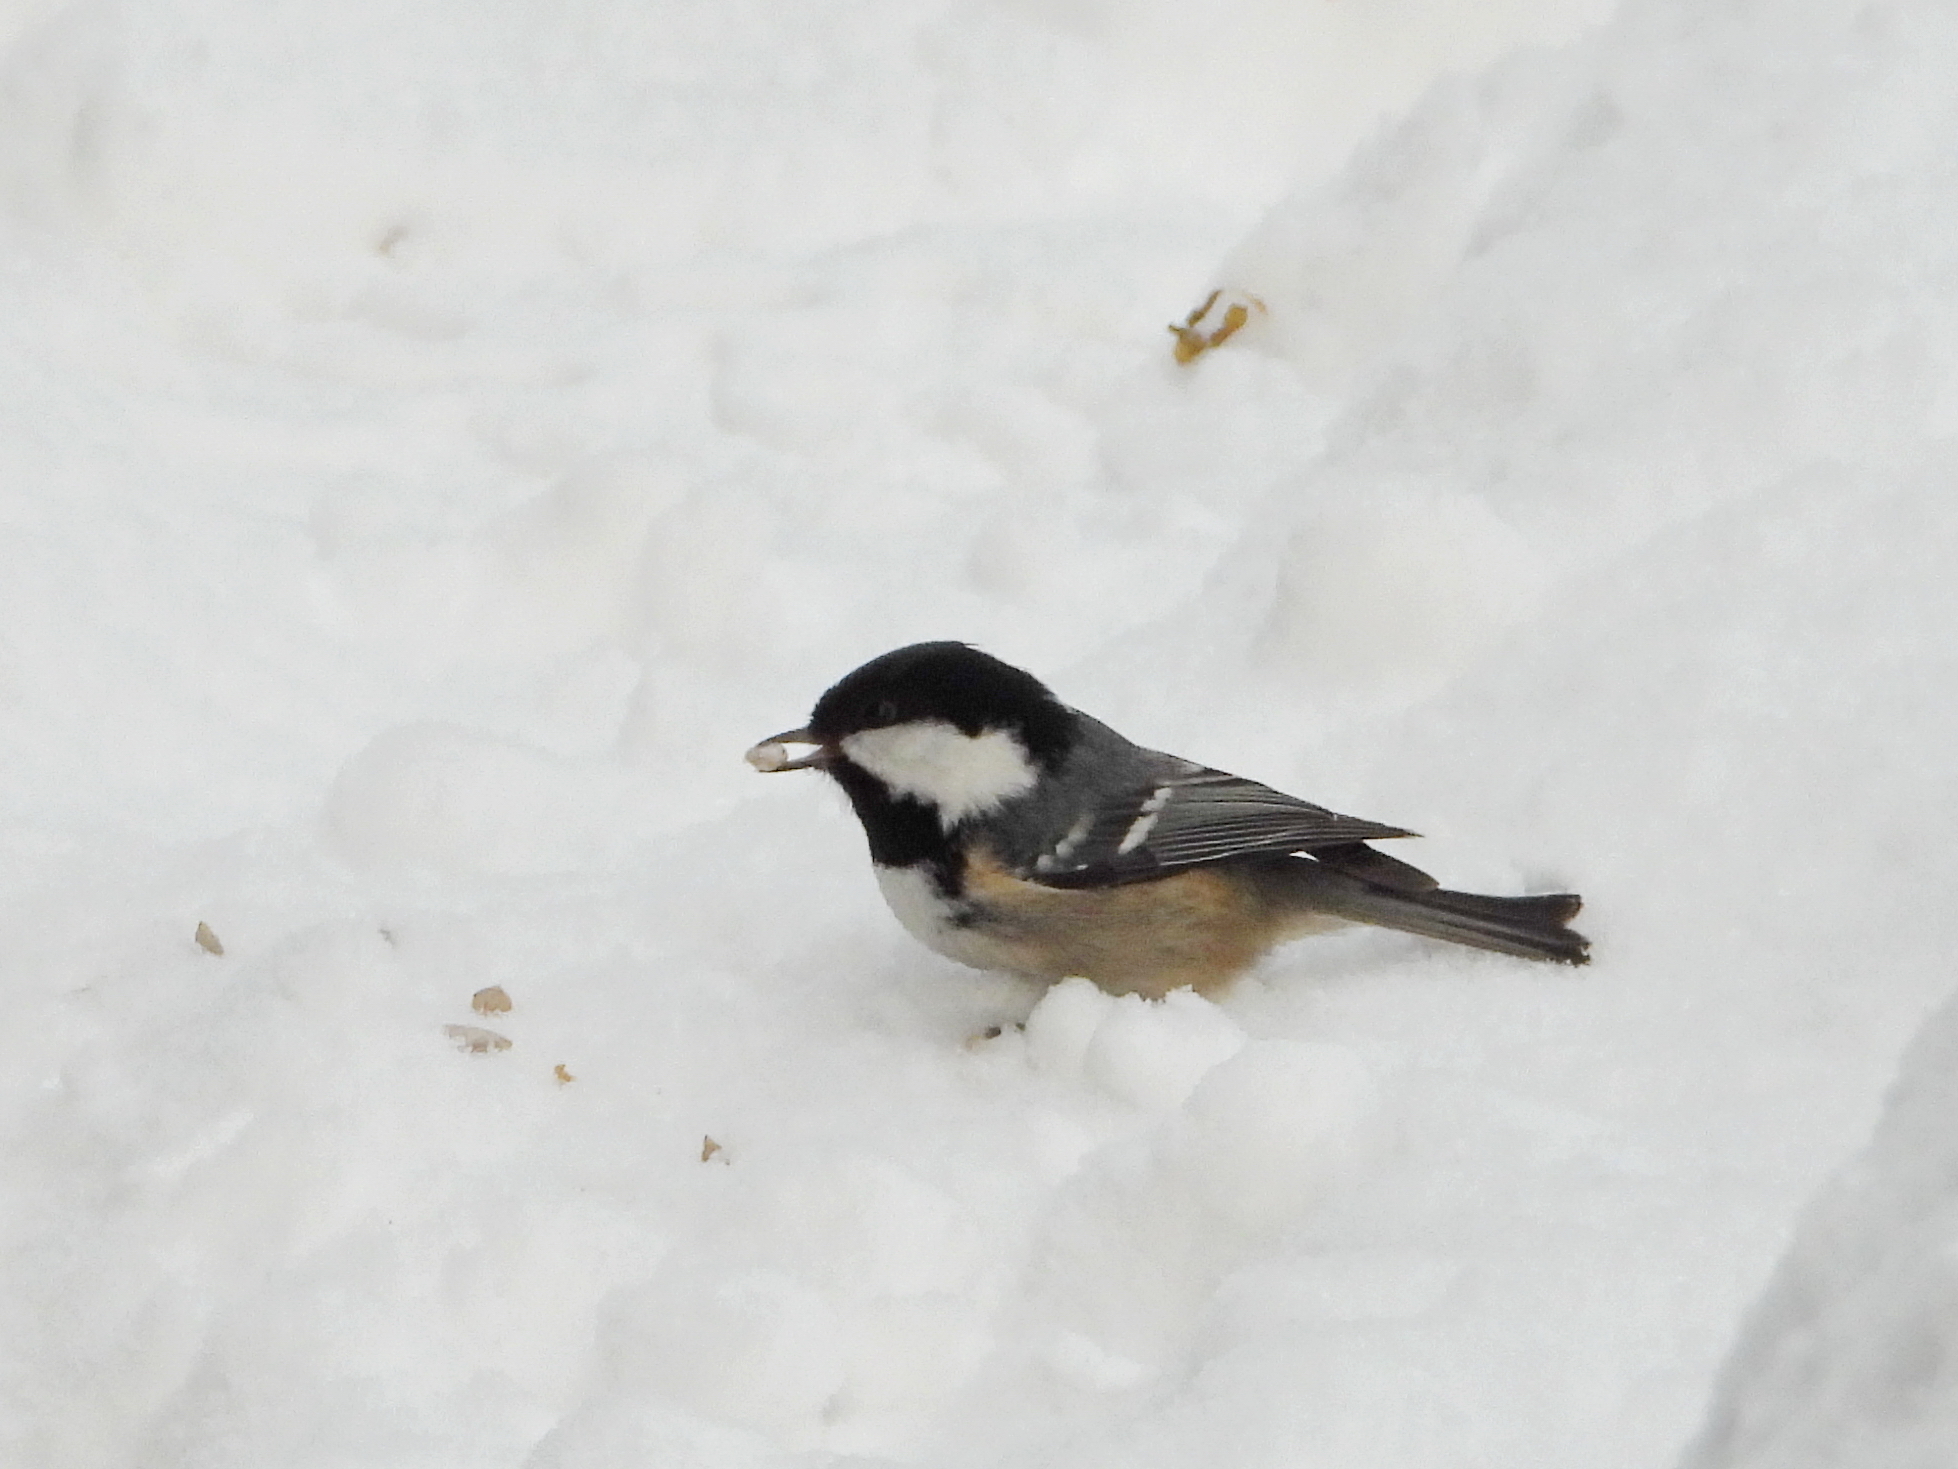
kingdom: Animalia
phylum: Chordata
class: Aves
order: Passeriformes
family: Paridae
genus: Periparus
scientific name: Periparus ater
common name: Coal tit
